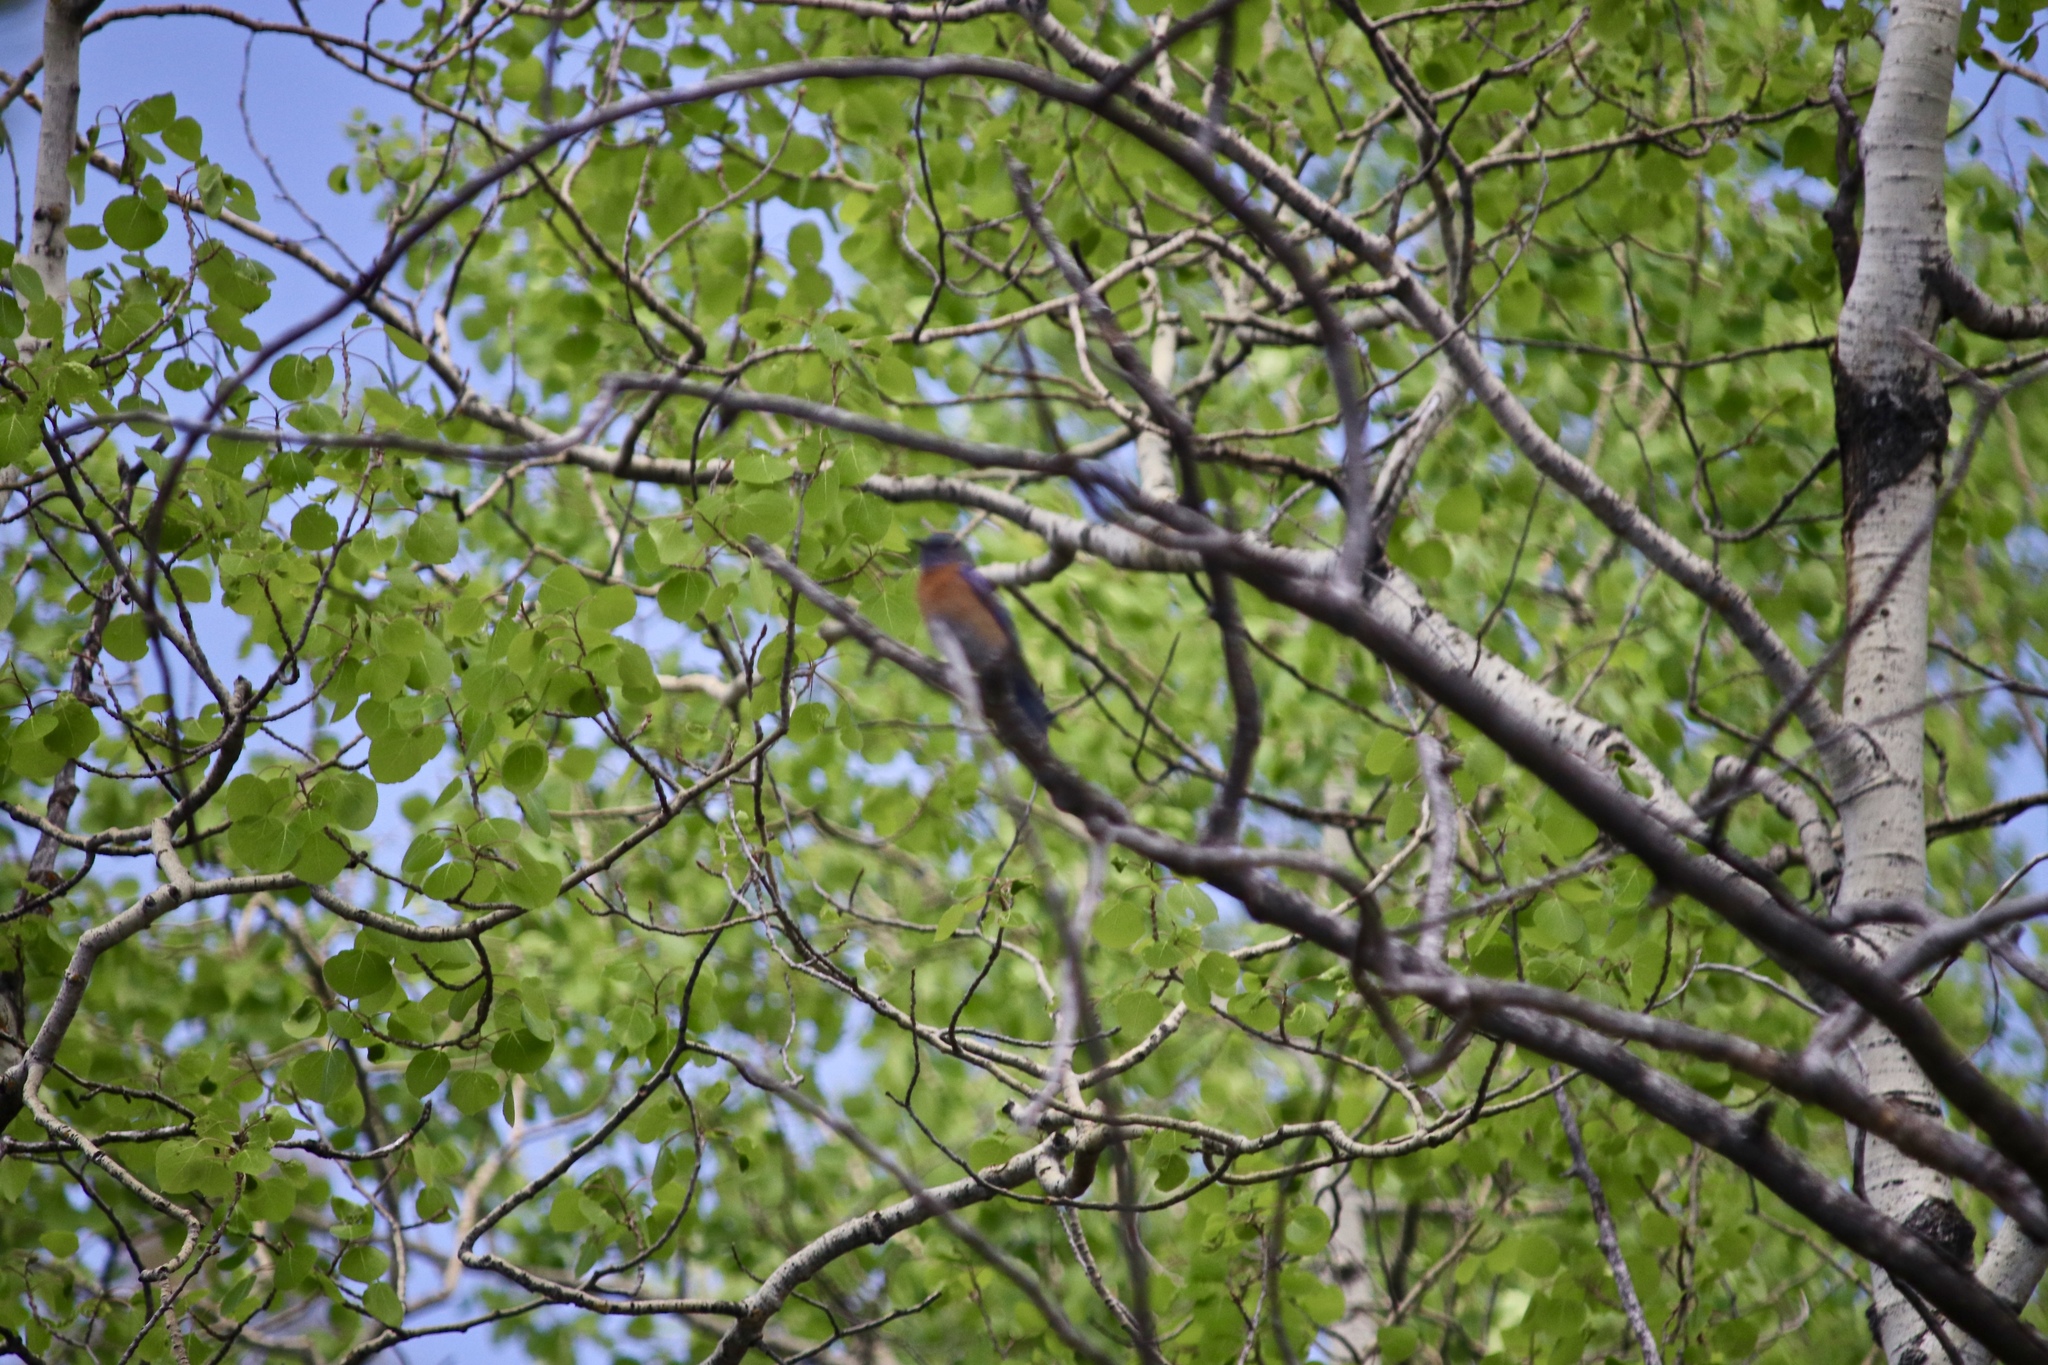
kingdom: Animalia
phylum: Chordata
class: Aves
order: Passeriformes
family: Turdidae
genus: Sialia
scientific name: Sialia mexicana
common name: Western bluebird
